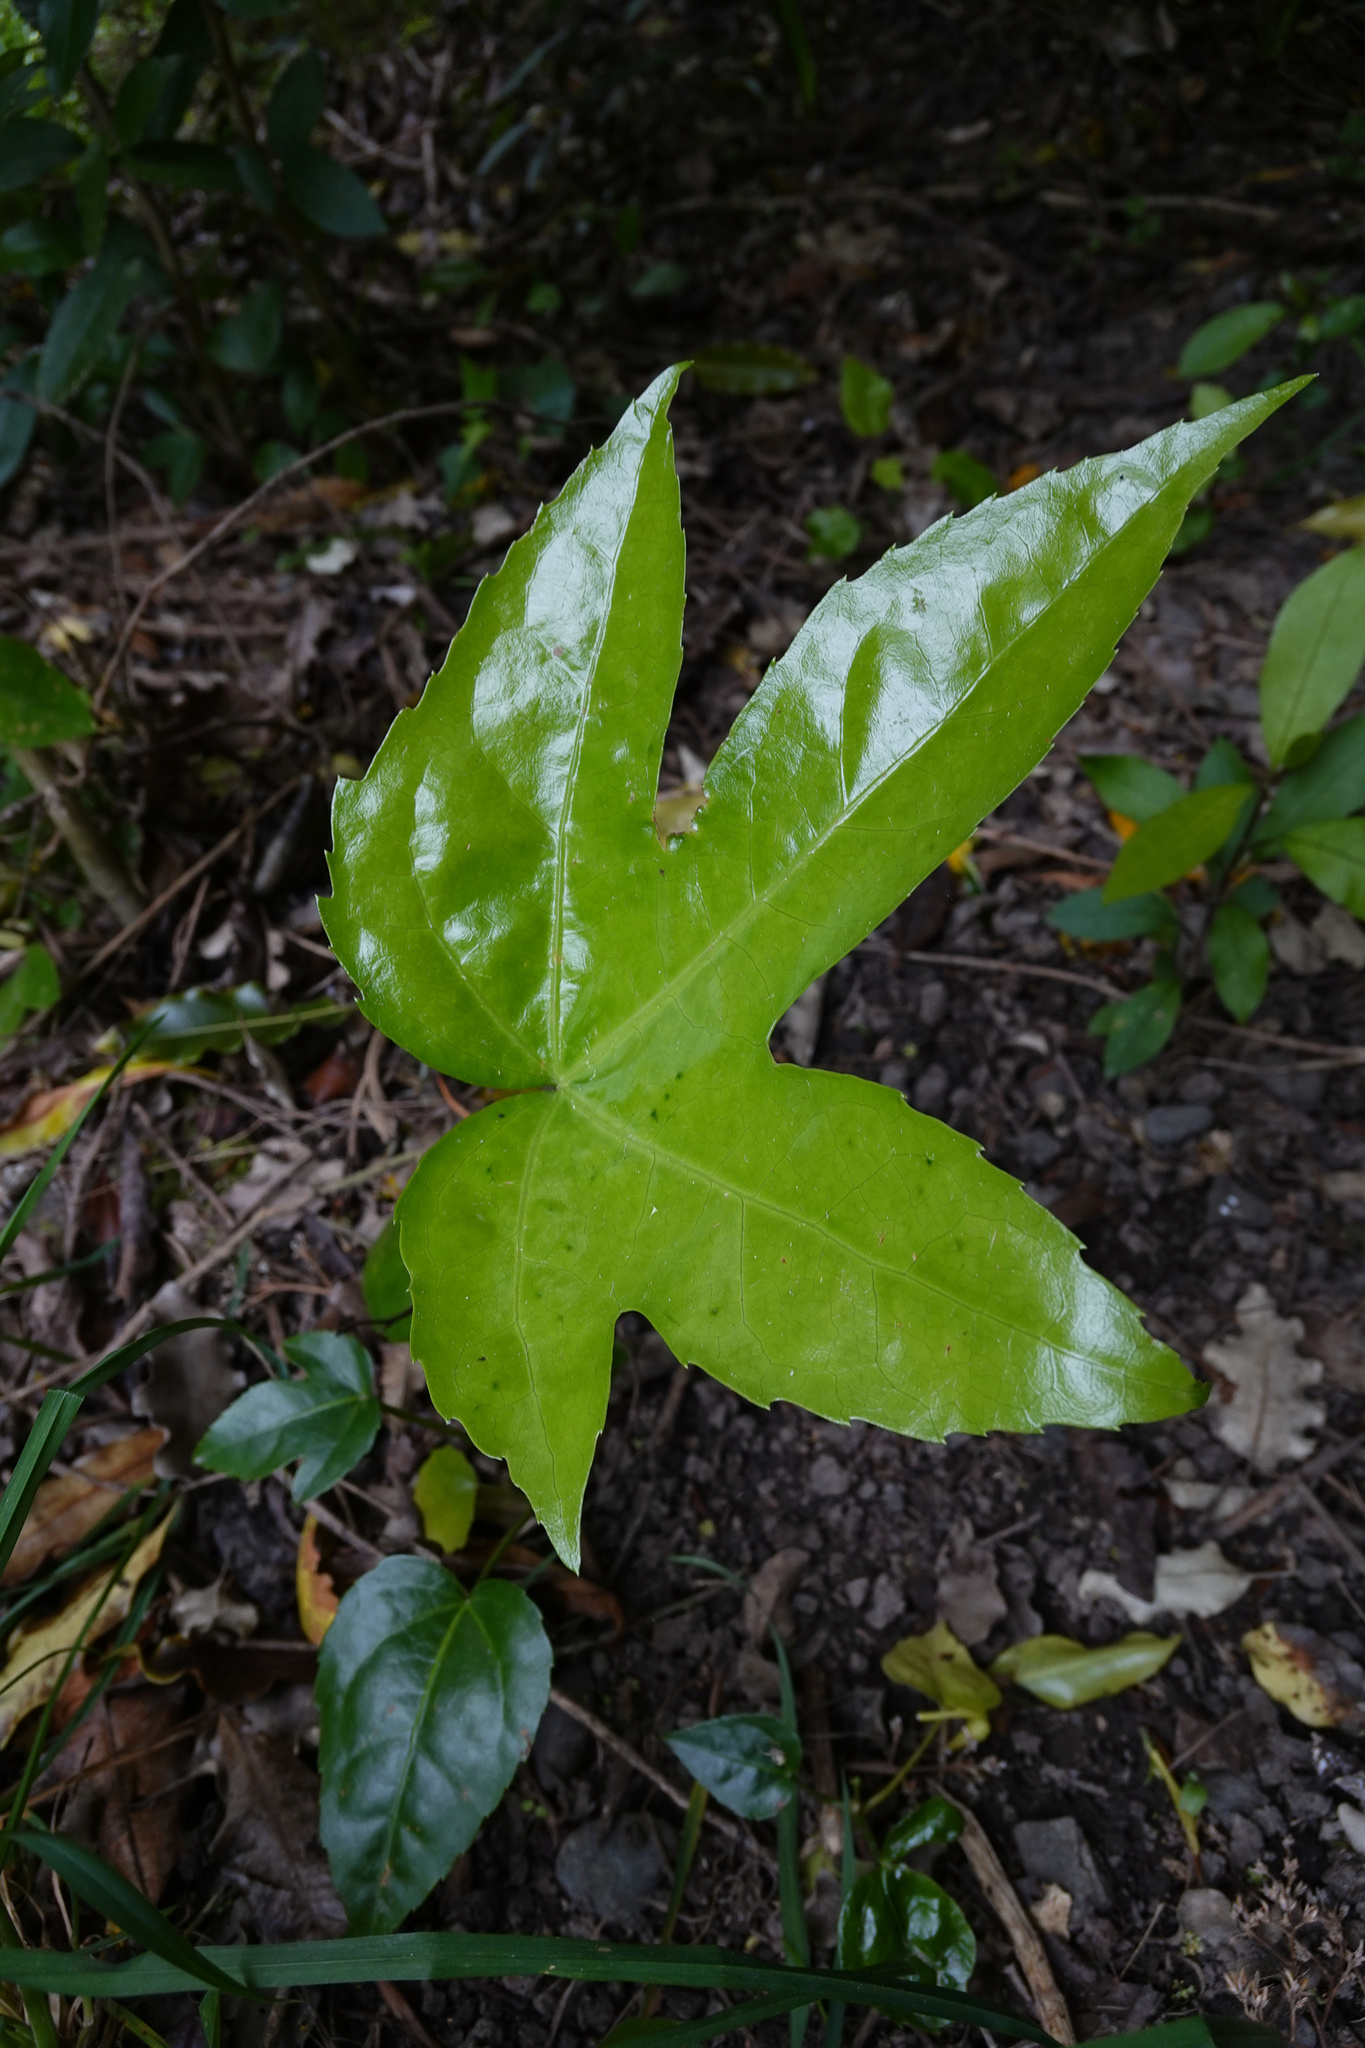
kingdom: Plantae
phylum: Tracheophyta
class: Magnoliopsida
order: Apiales
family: Araliaceae
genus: Fatsia
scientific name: Fatsia japonica
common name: Fatsia
